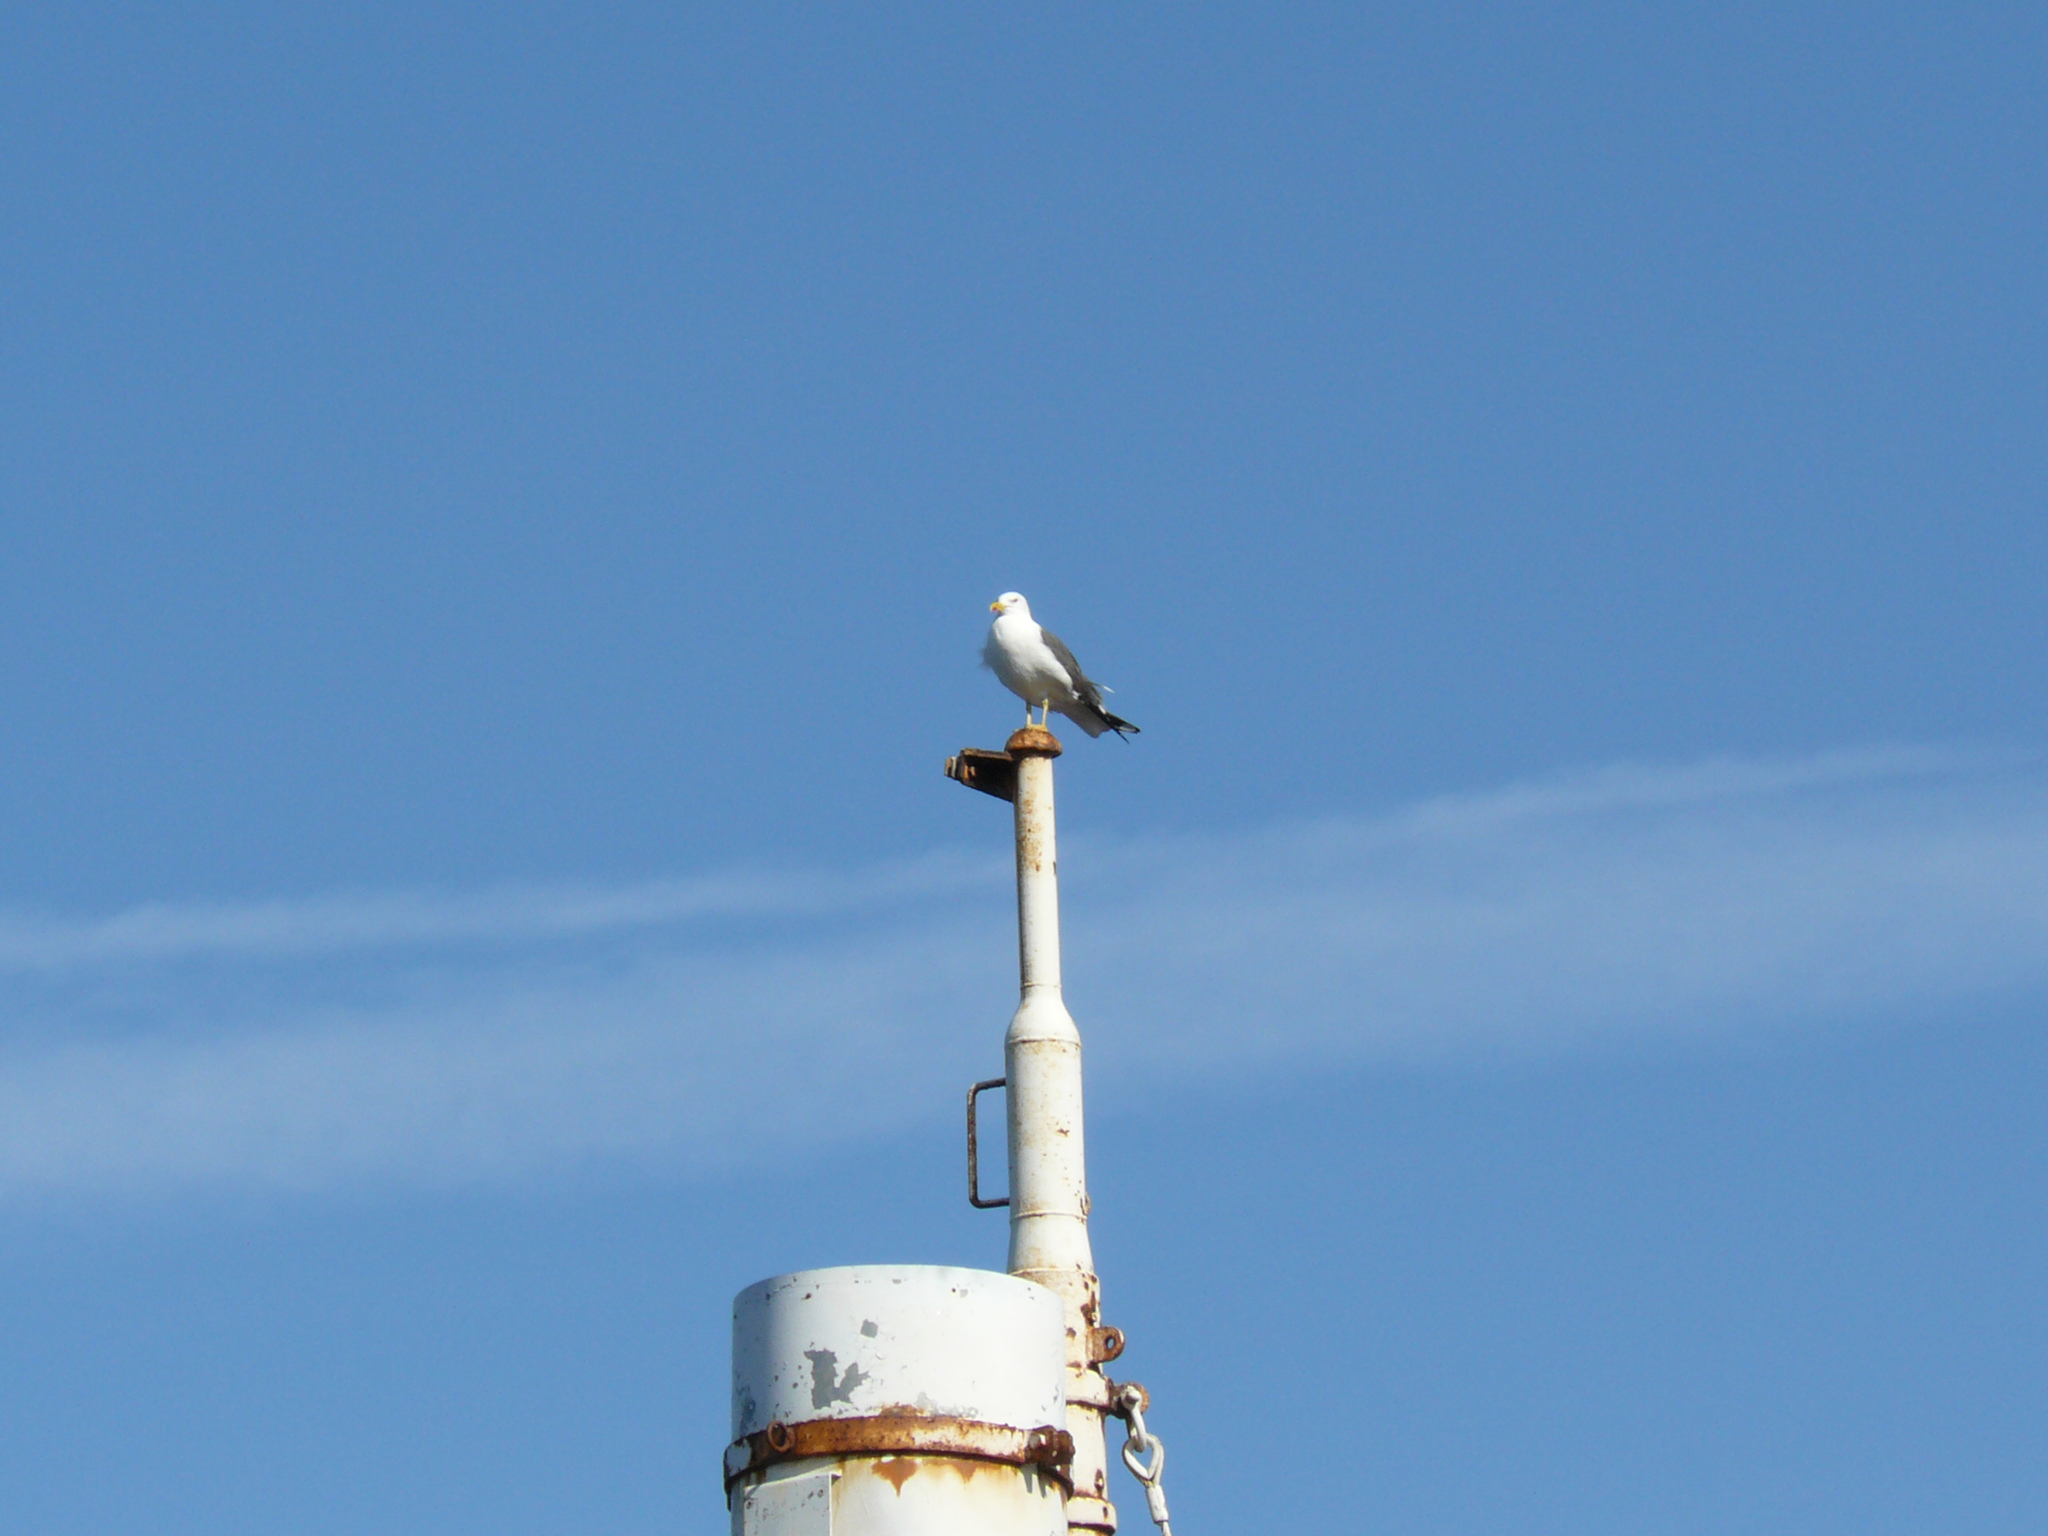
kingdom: Animalia
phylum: Chordata
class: Aves
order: Charadriiformes
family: Laridae
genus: Larus
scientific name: Larus fuscus
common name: Lesser black-backed gull
